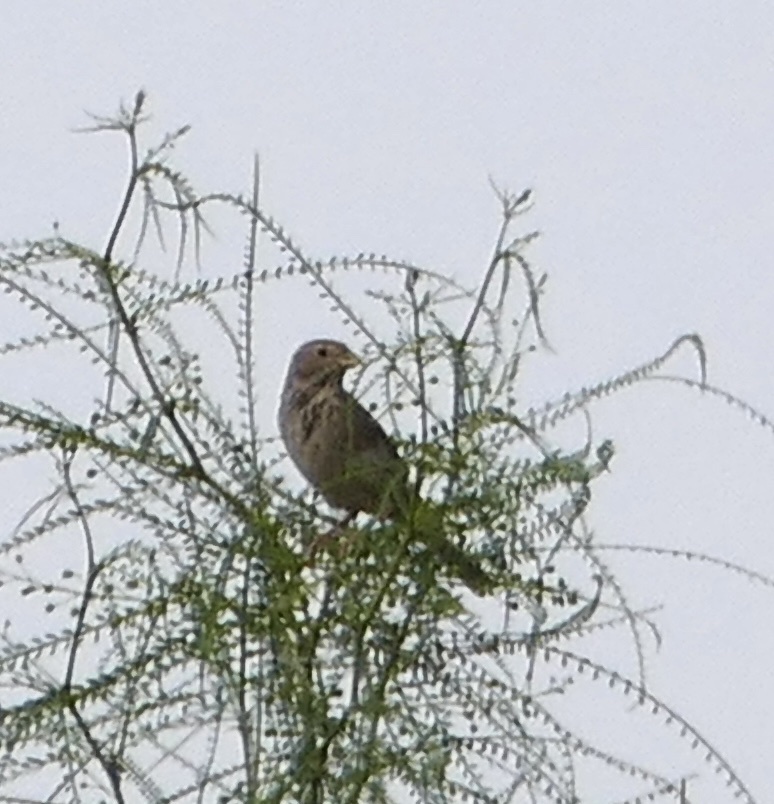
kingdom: Animalia
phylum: Chordata
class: Aves
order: Passeriformes
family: Emberizidae
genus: Emberiza
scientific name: Emberiza calandra
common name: Corn bunting
